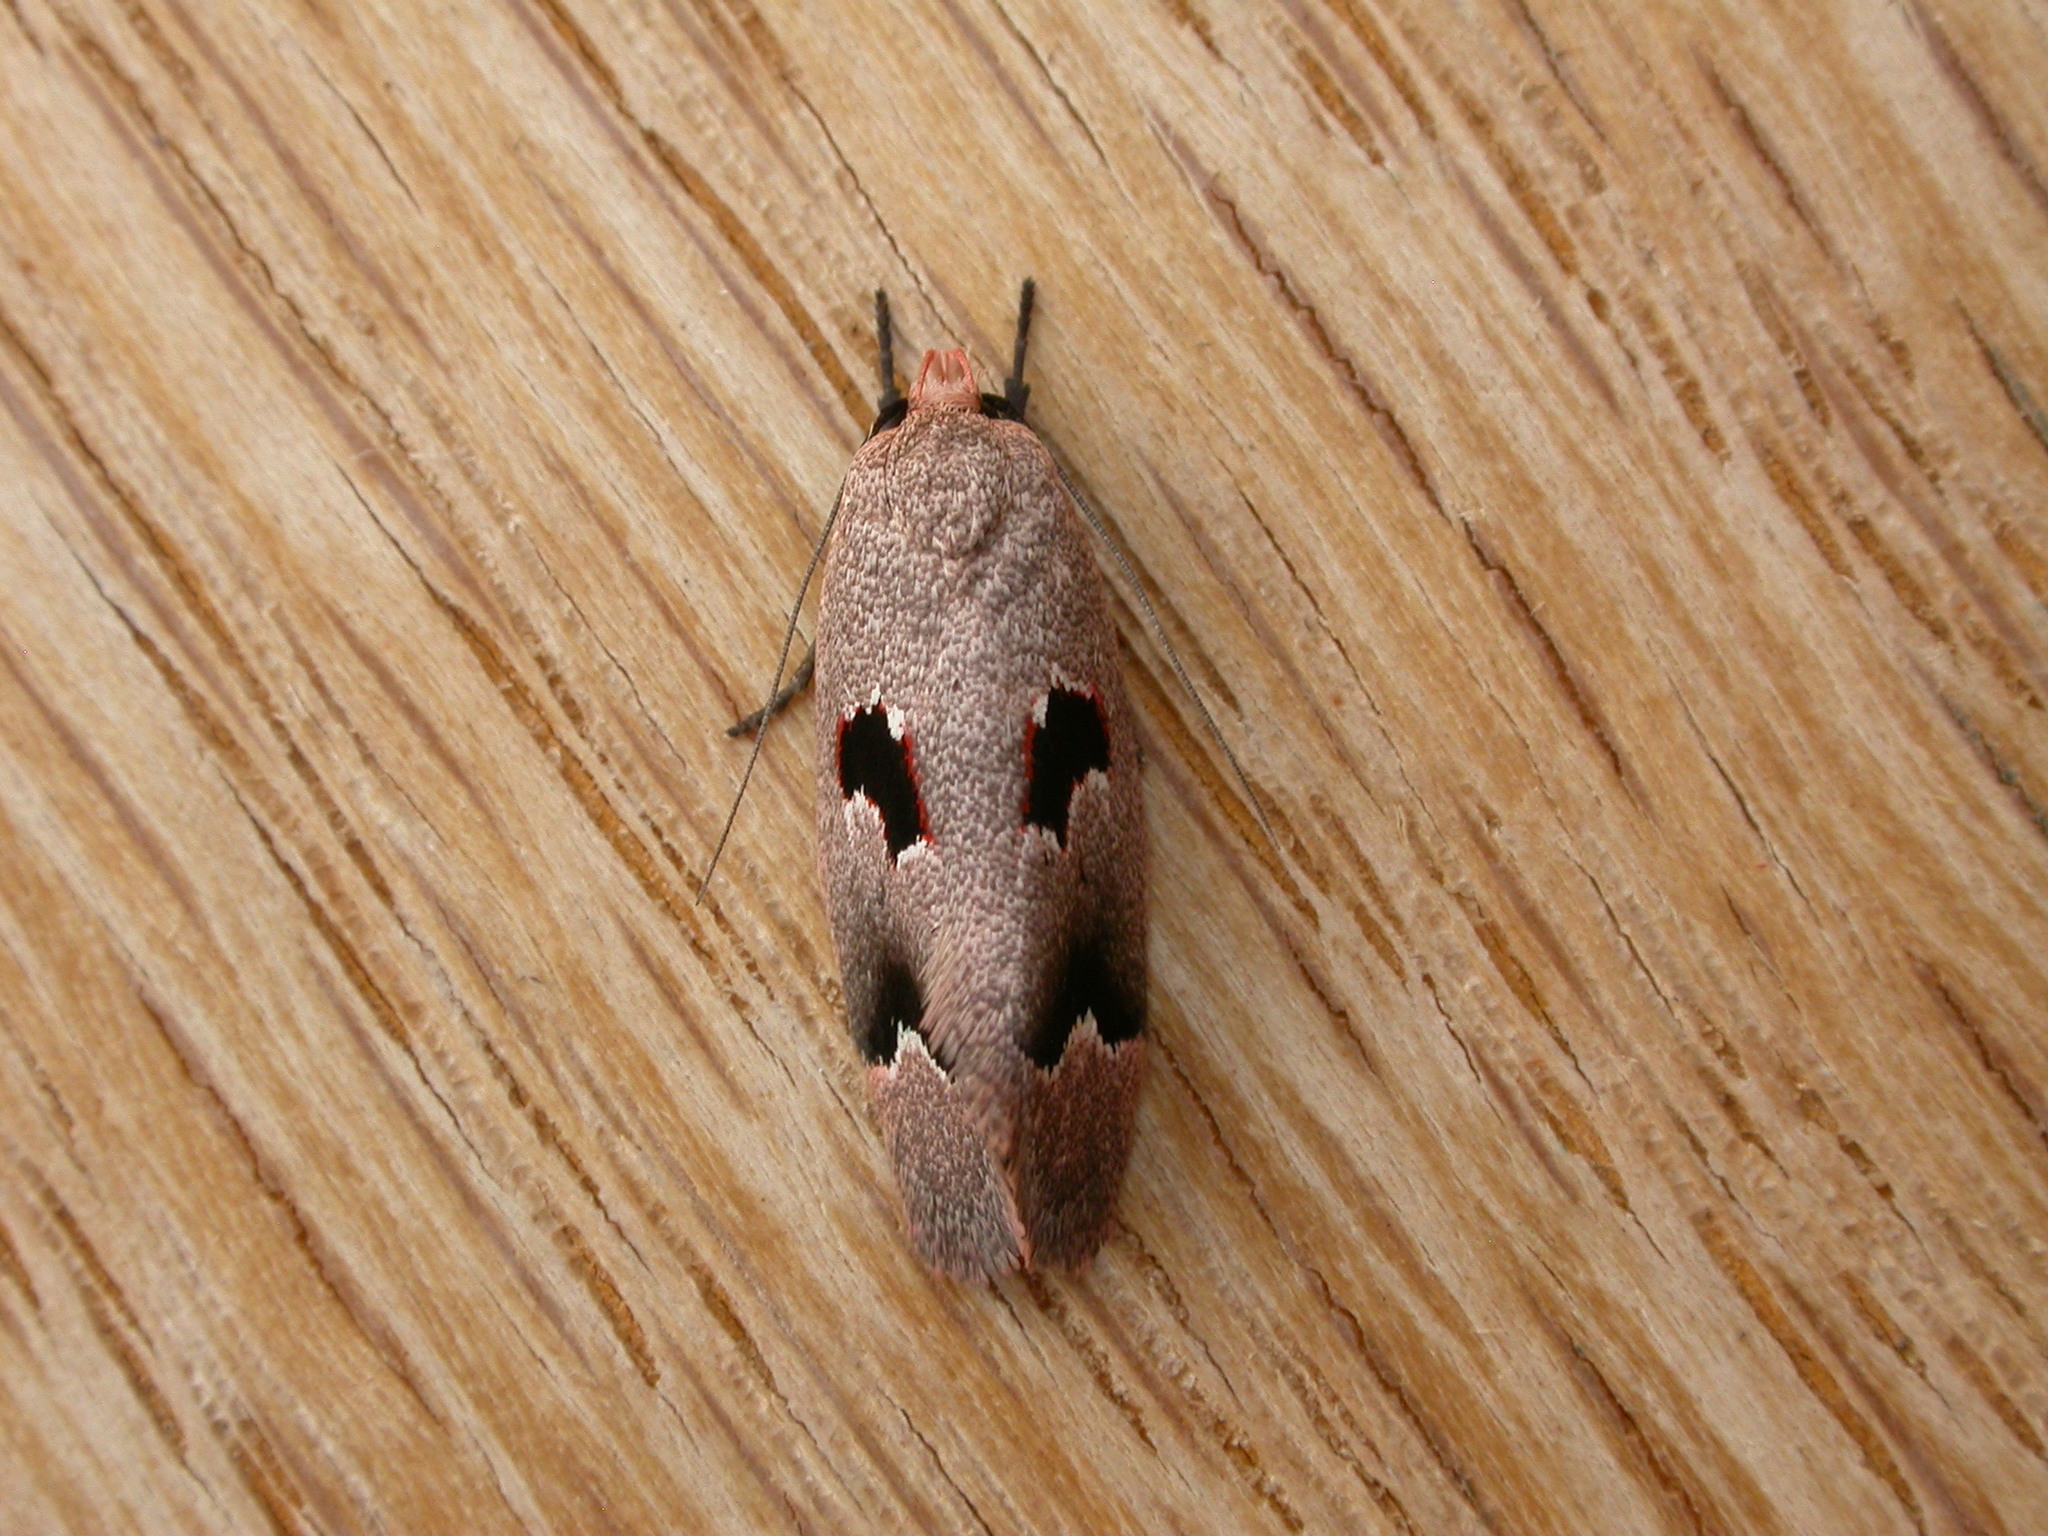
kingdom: Animalia
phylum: Arthropoda
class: Insecta
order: Lepidoptera
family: Oecophoridae
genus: Acanthodela
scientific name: Acanthodela erythrosema
